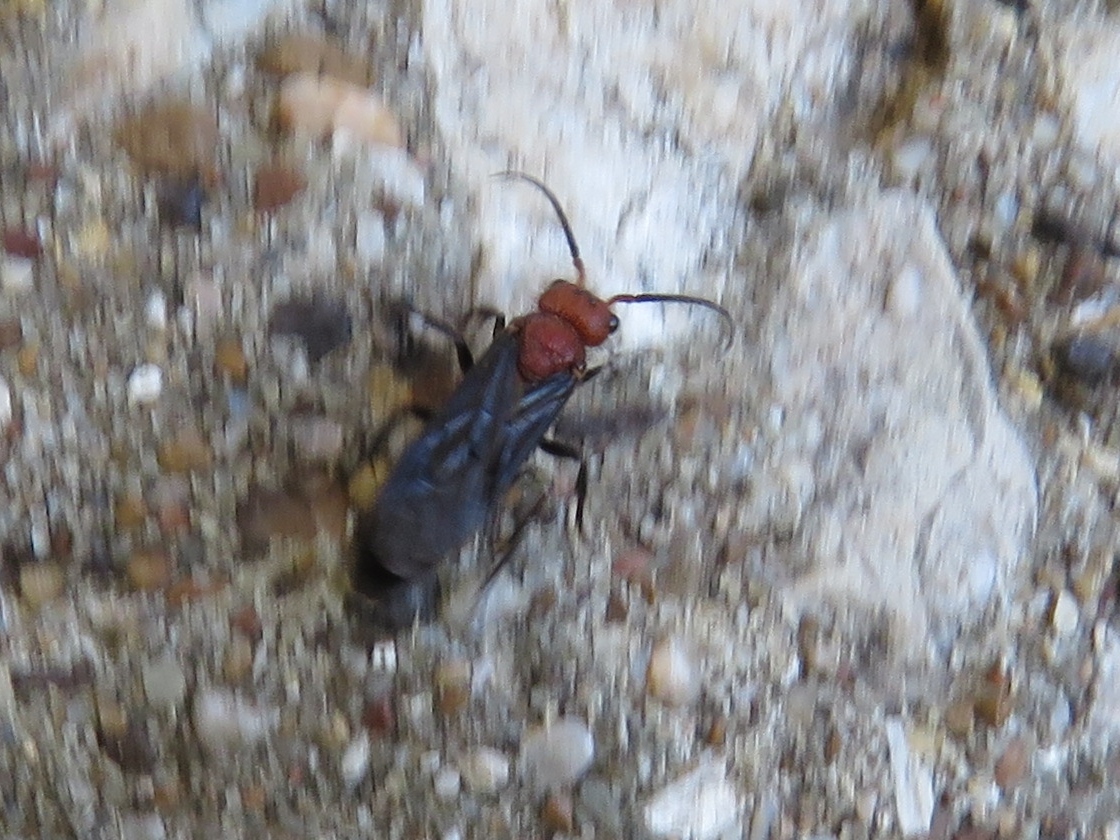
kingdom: Animalia
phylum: Arthropoda
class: Insecta
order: Hymenoptera
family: Mutillidae
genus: Sphaeropthalma
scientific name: Sphaeropthalma
